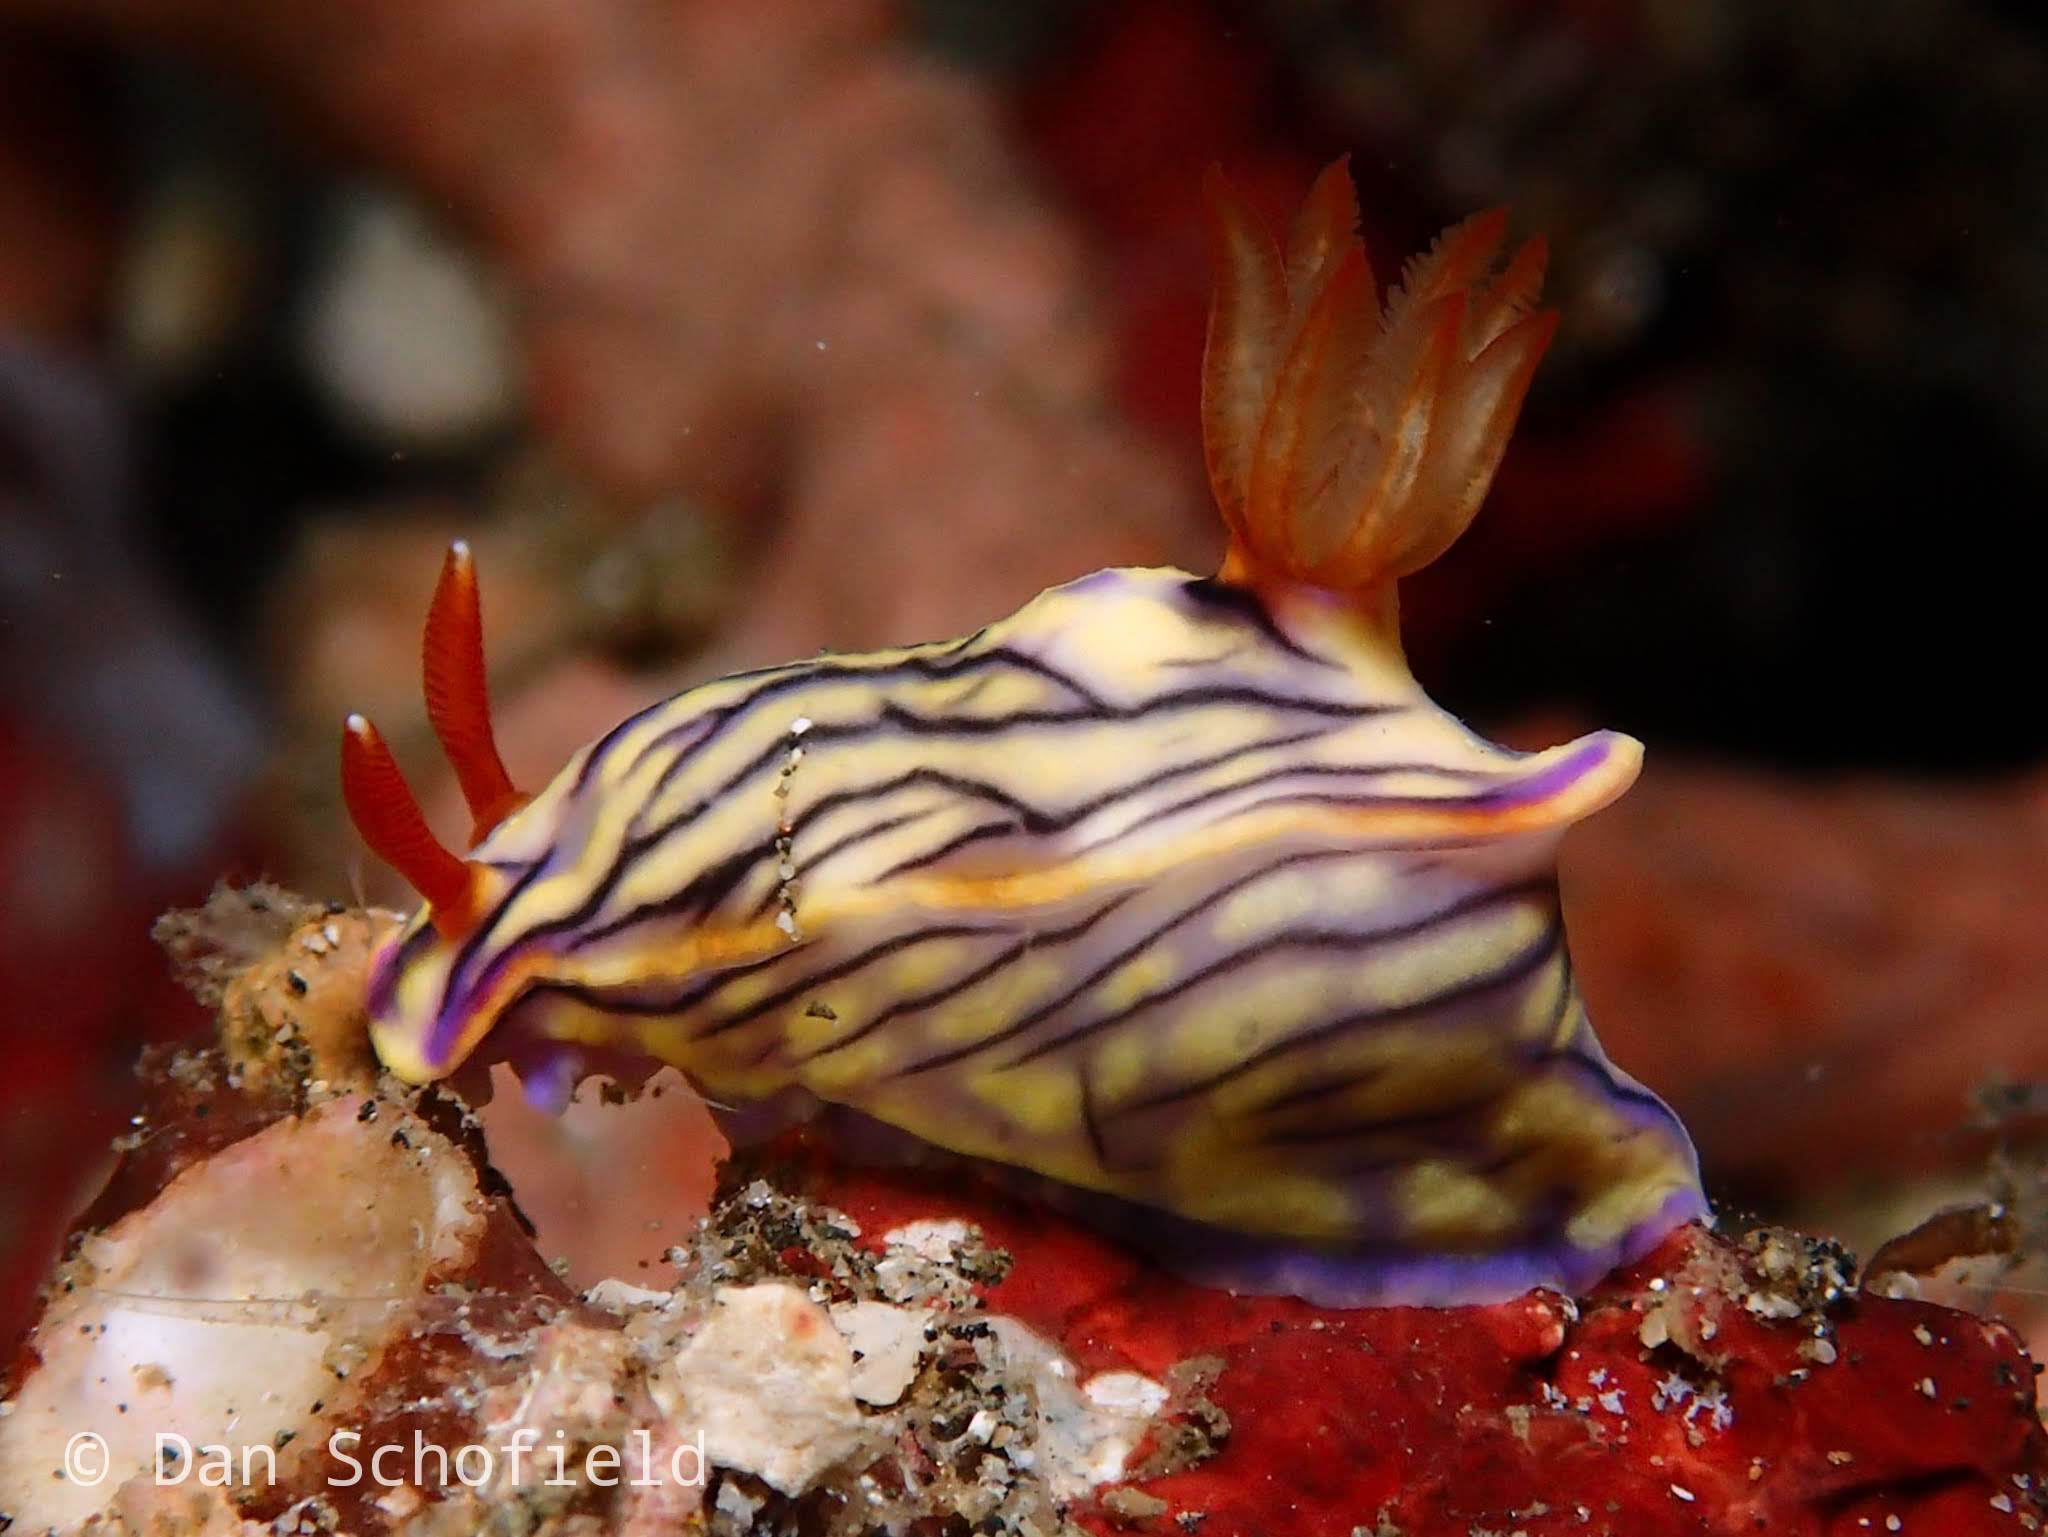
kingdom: Animalia
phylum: Mollusca
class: Gastropoda
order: Nudibranchia
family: Chromodorididae
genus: Hypselodoris
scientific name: Hypselodoris zephyra
